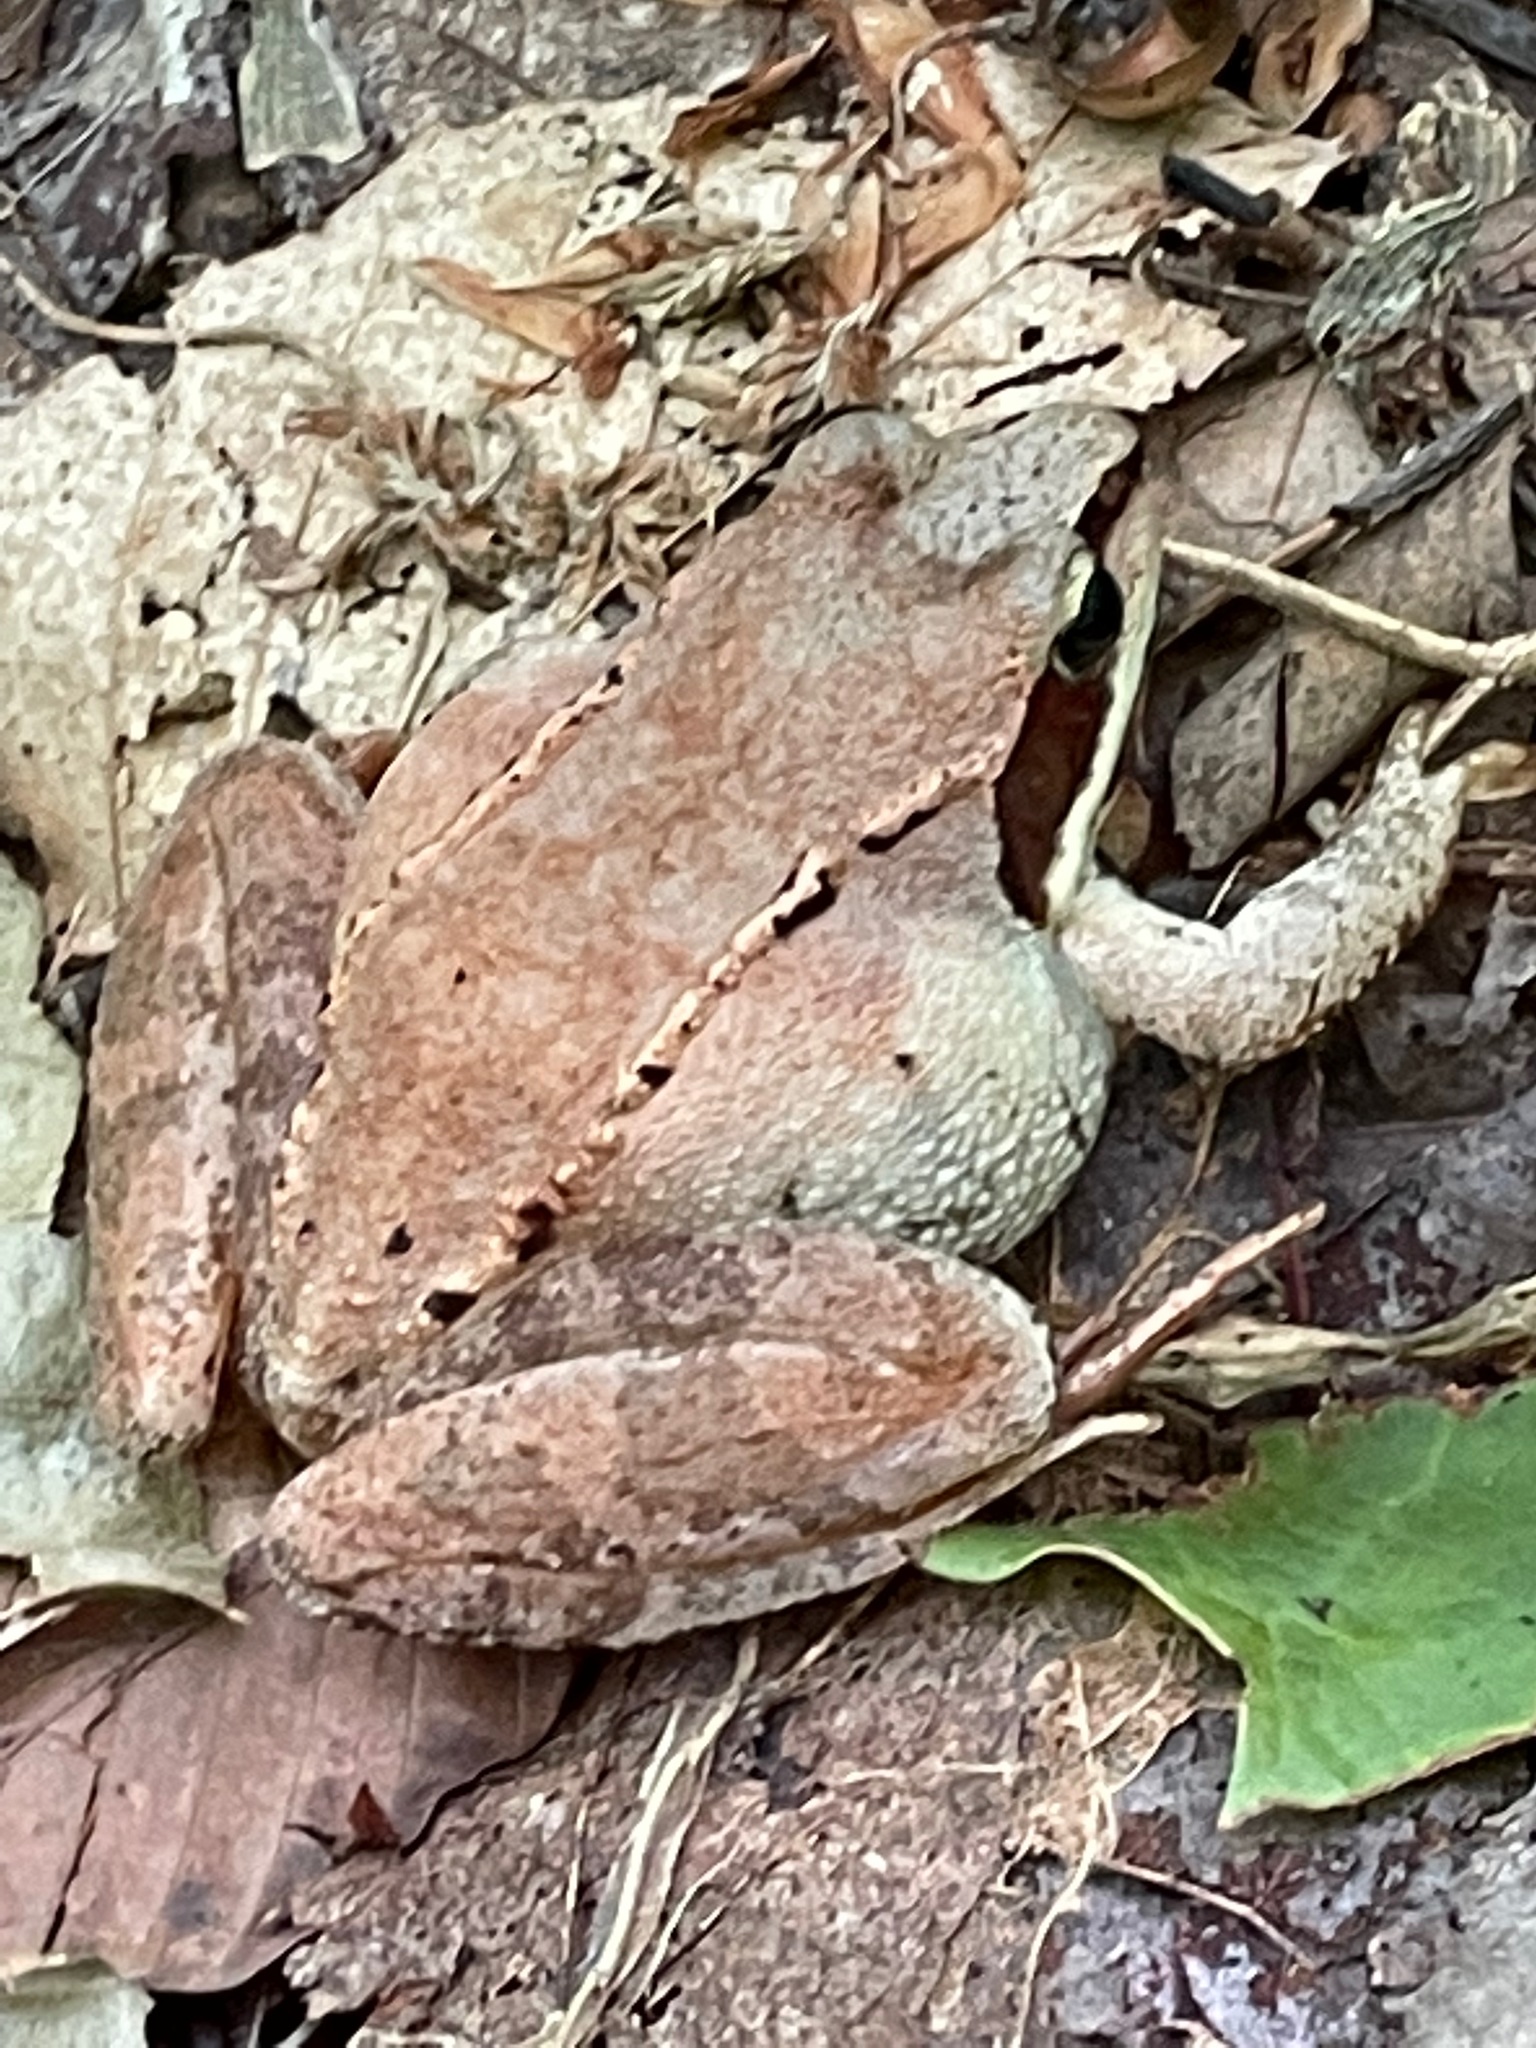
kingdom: Animalia
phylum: Chordata
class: Amphibia
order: Anura
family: Ranidae
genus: Lithobates
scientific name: Lithobates sylvaticus
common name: Wood frog
